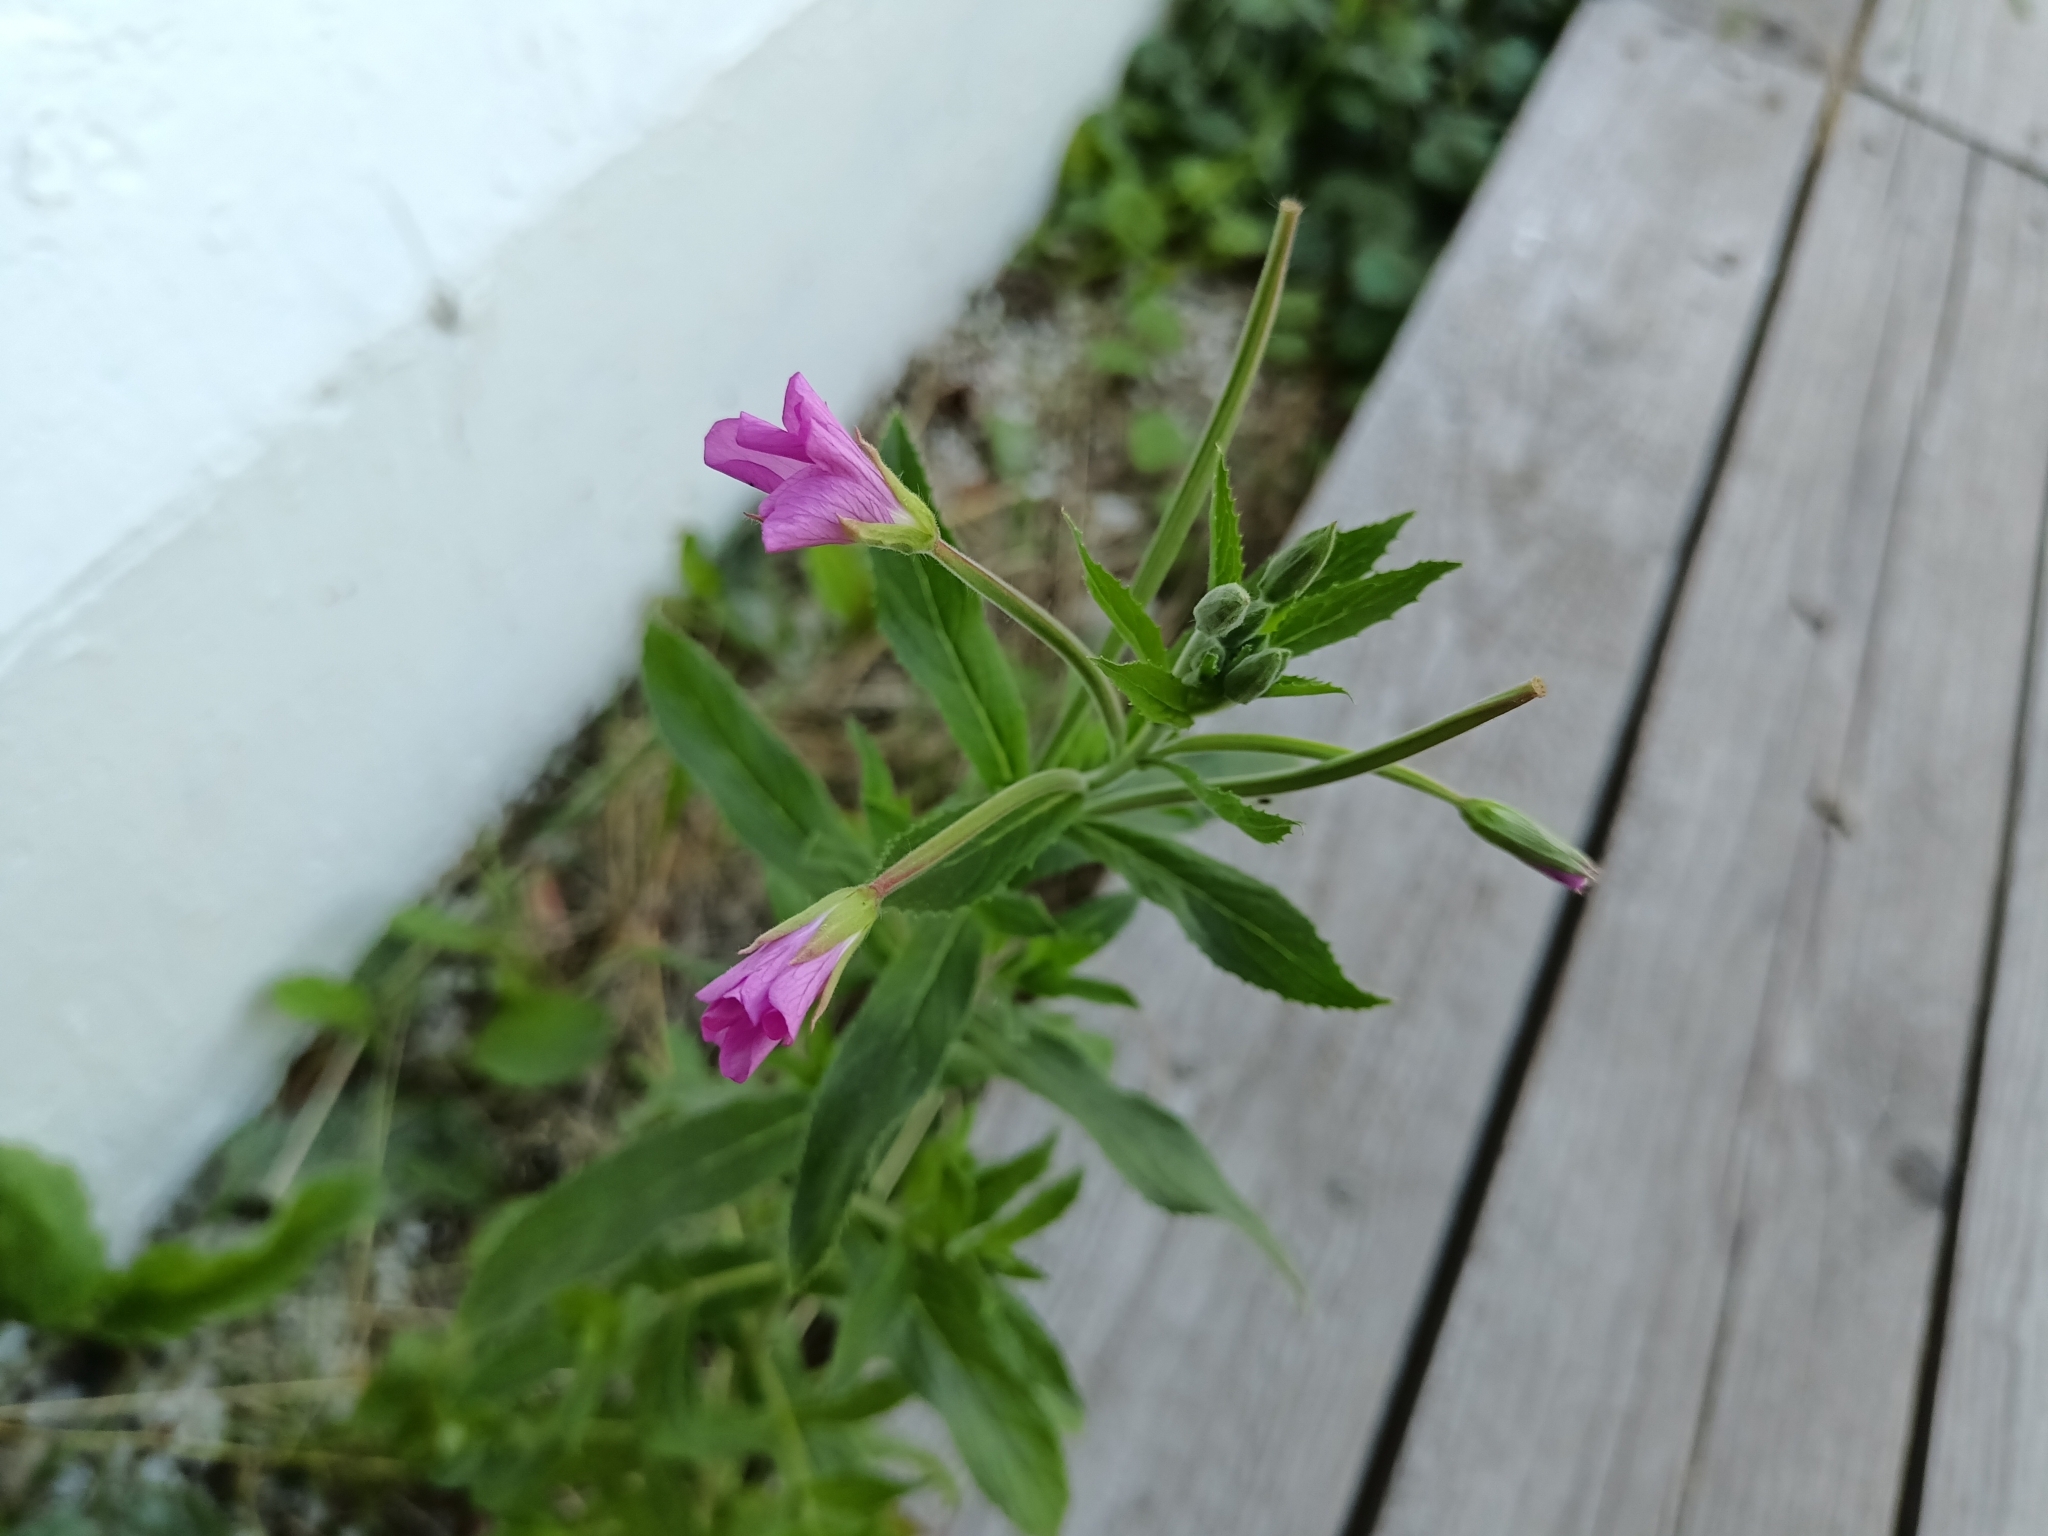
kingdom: Plantae
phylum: Tracheophyta
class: Magnoliopsida
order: Myrtales
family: Onagraceae
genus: Epilobium
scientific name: Epilobium hirsutum
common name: Great willowherb
